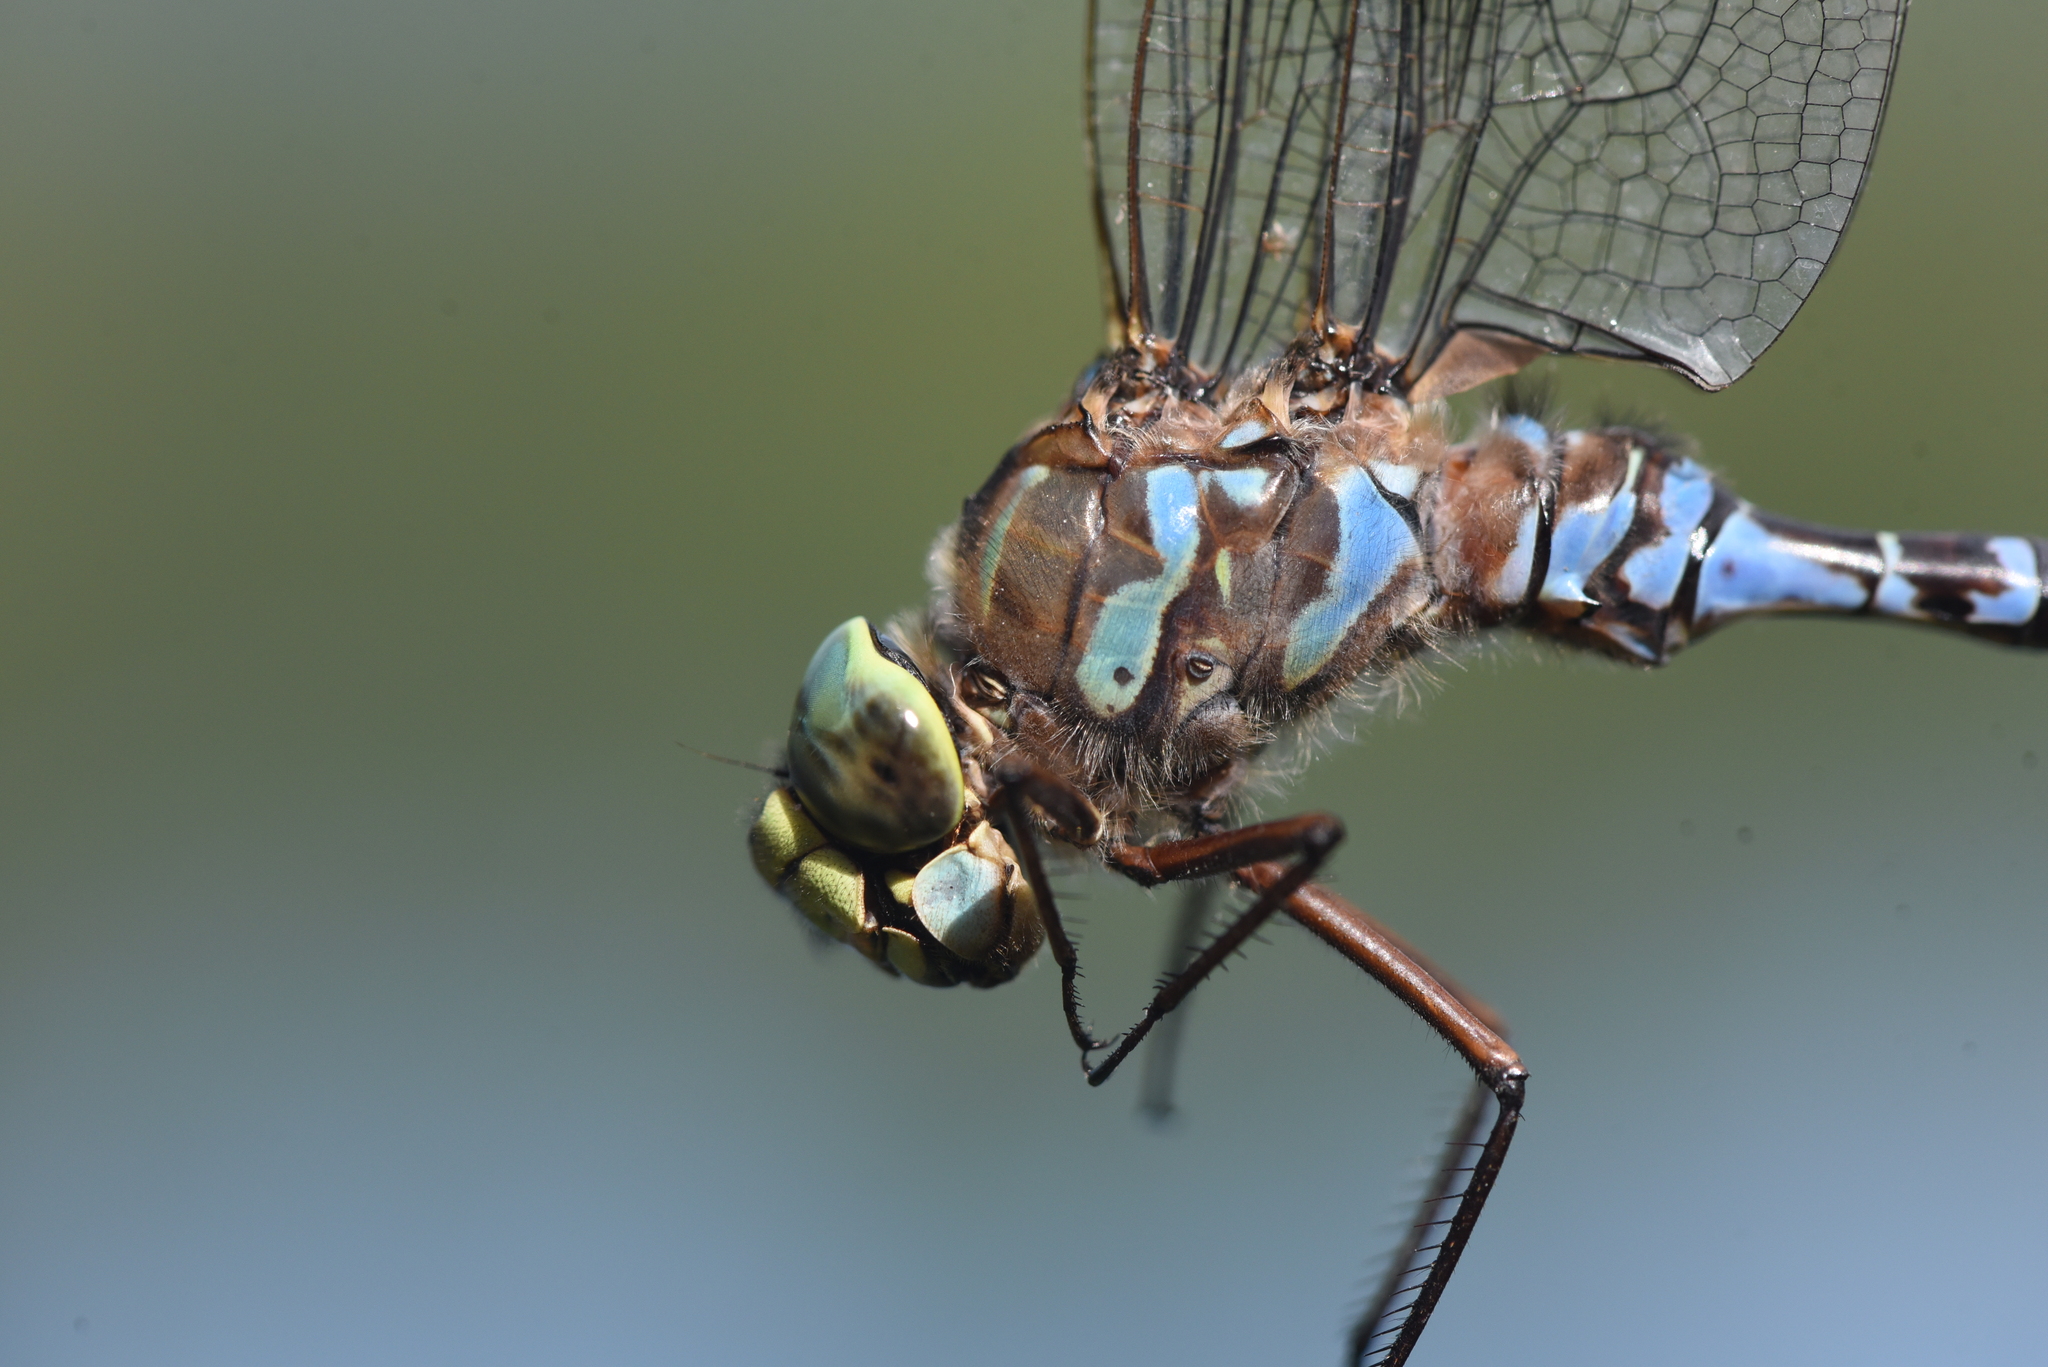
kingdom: Animalia
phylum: Arthropoda
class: Insecta
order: Odonata
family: Aeshnidae
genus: Aeshna
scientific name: Aeshna eremita
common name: Lake darner
